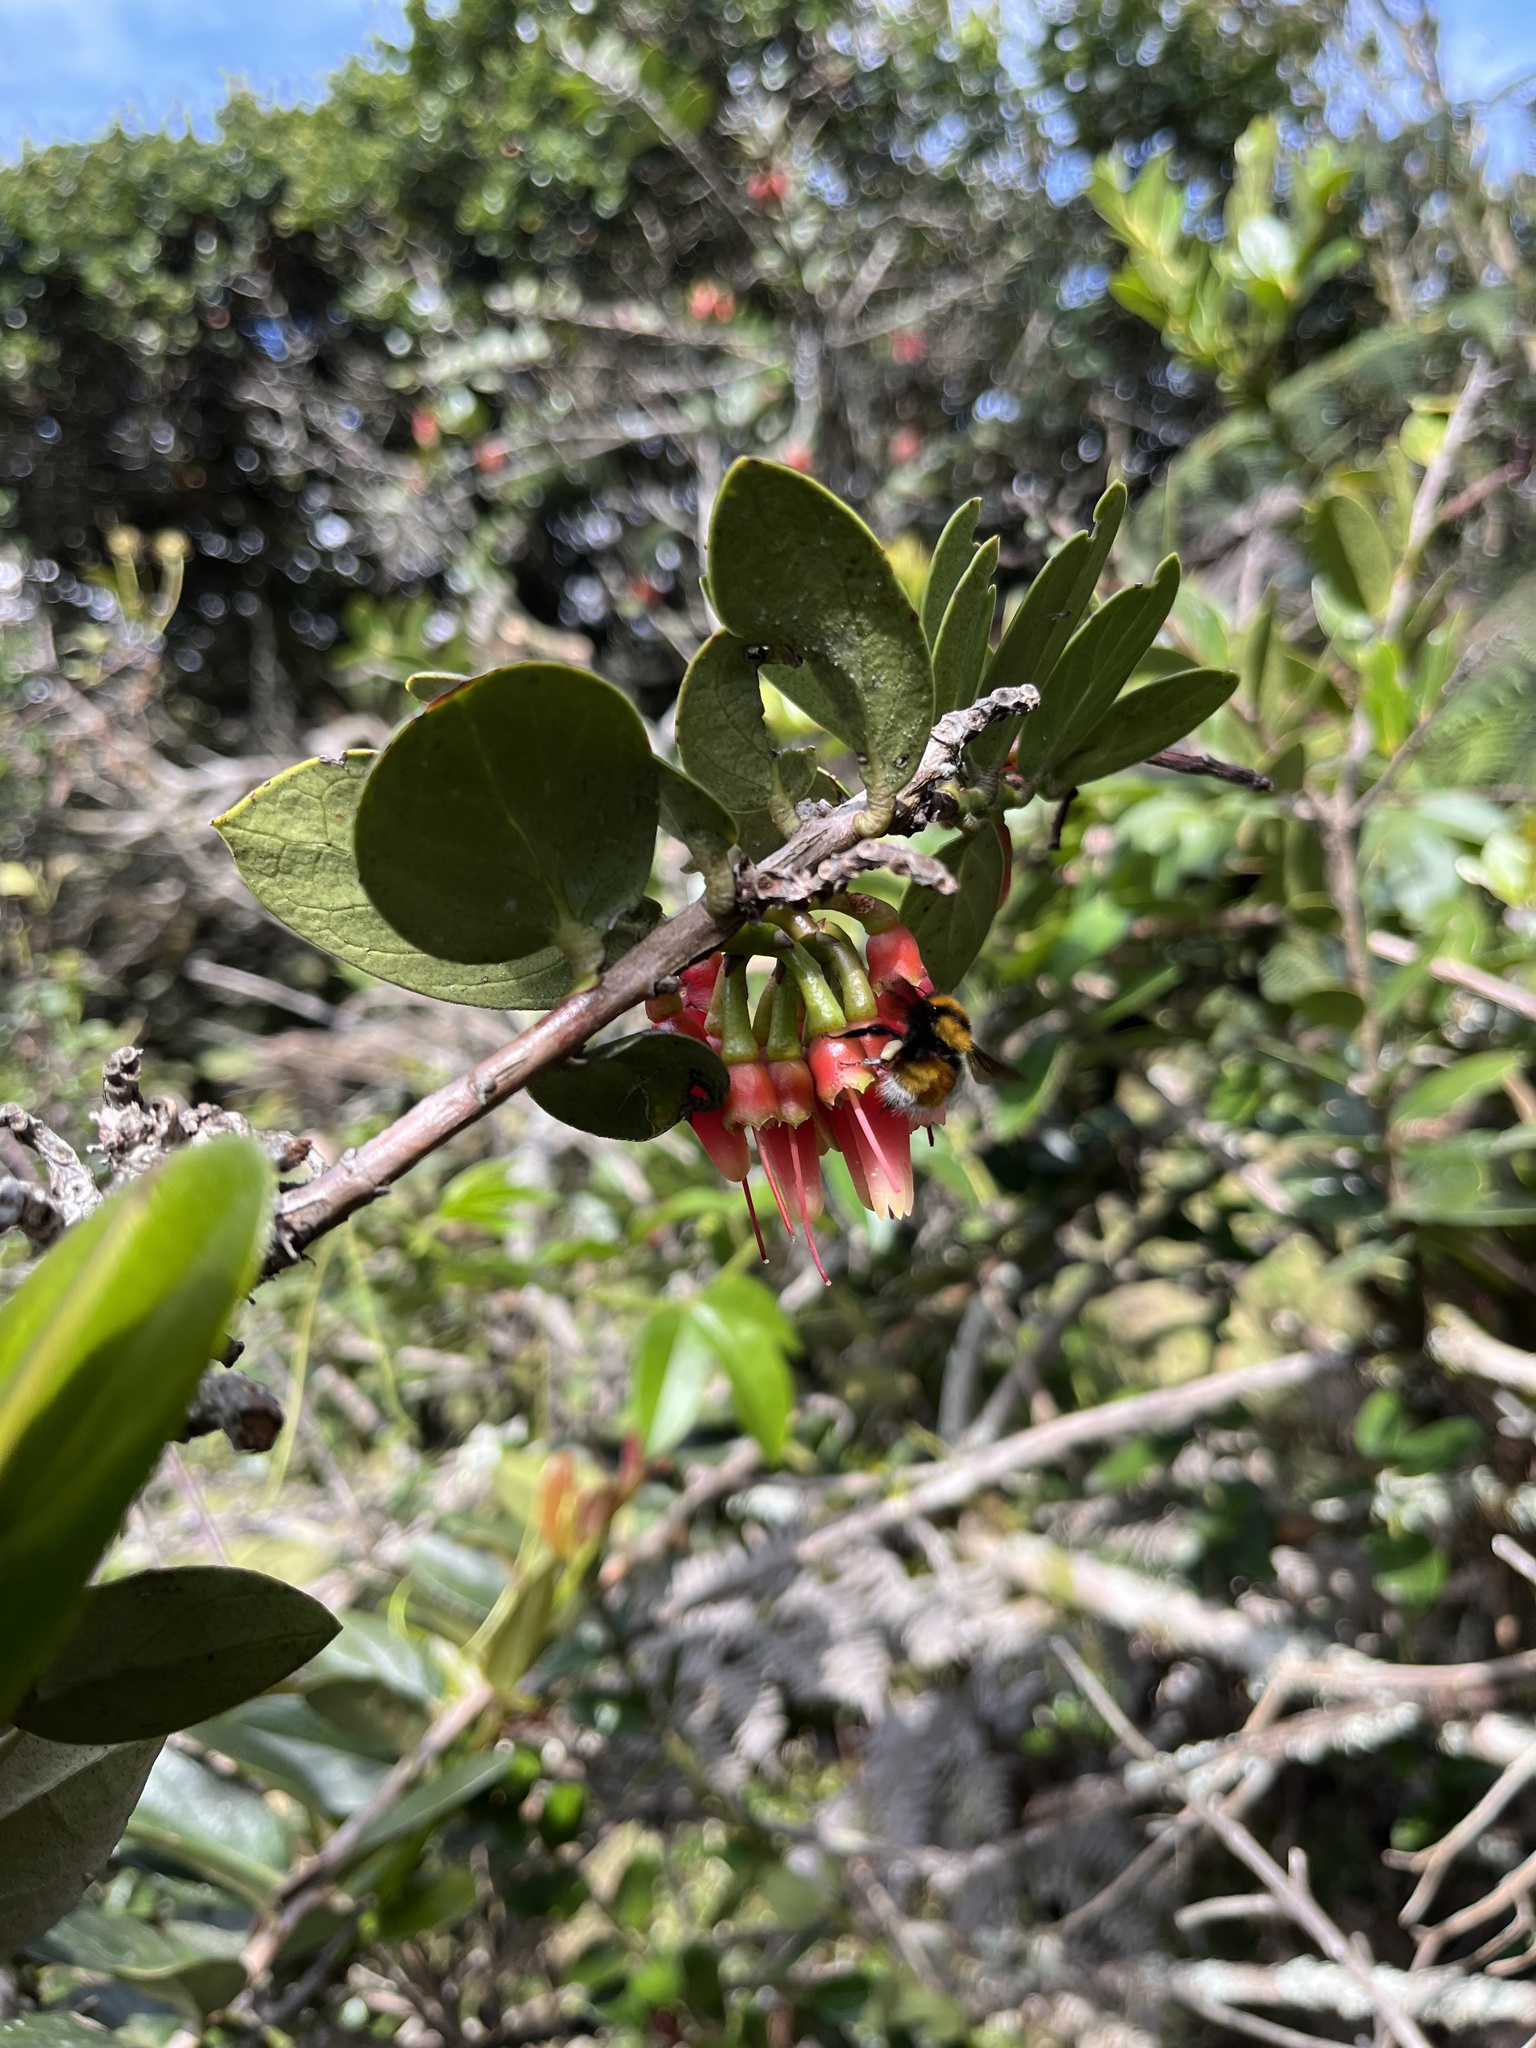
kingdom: Plantae
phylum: Tracheophyta
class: Magnoliopsida
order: Ericales
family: Ericaceae
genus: Macleania
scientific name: Macleania rupestris
